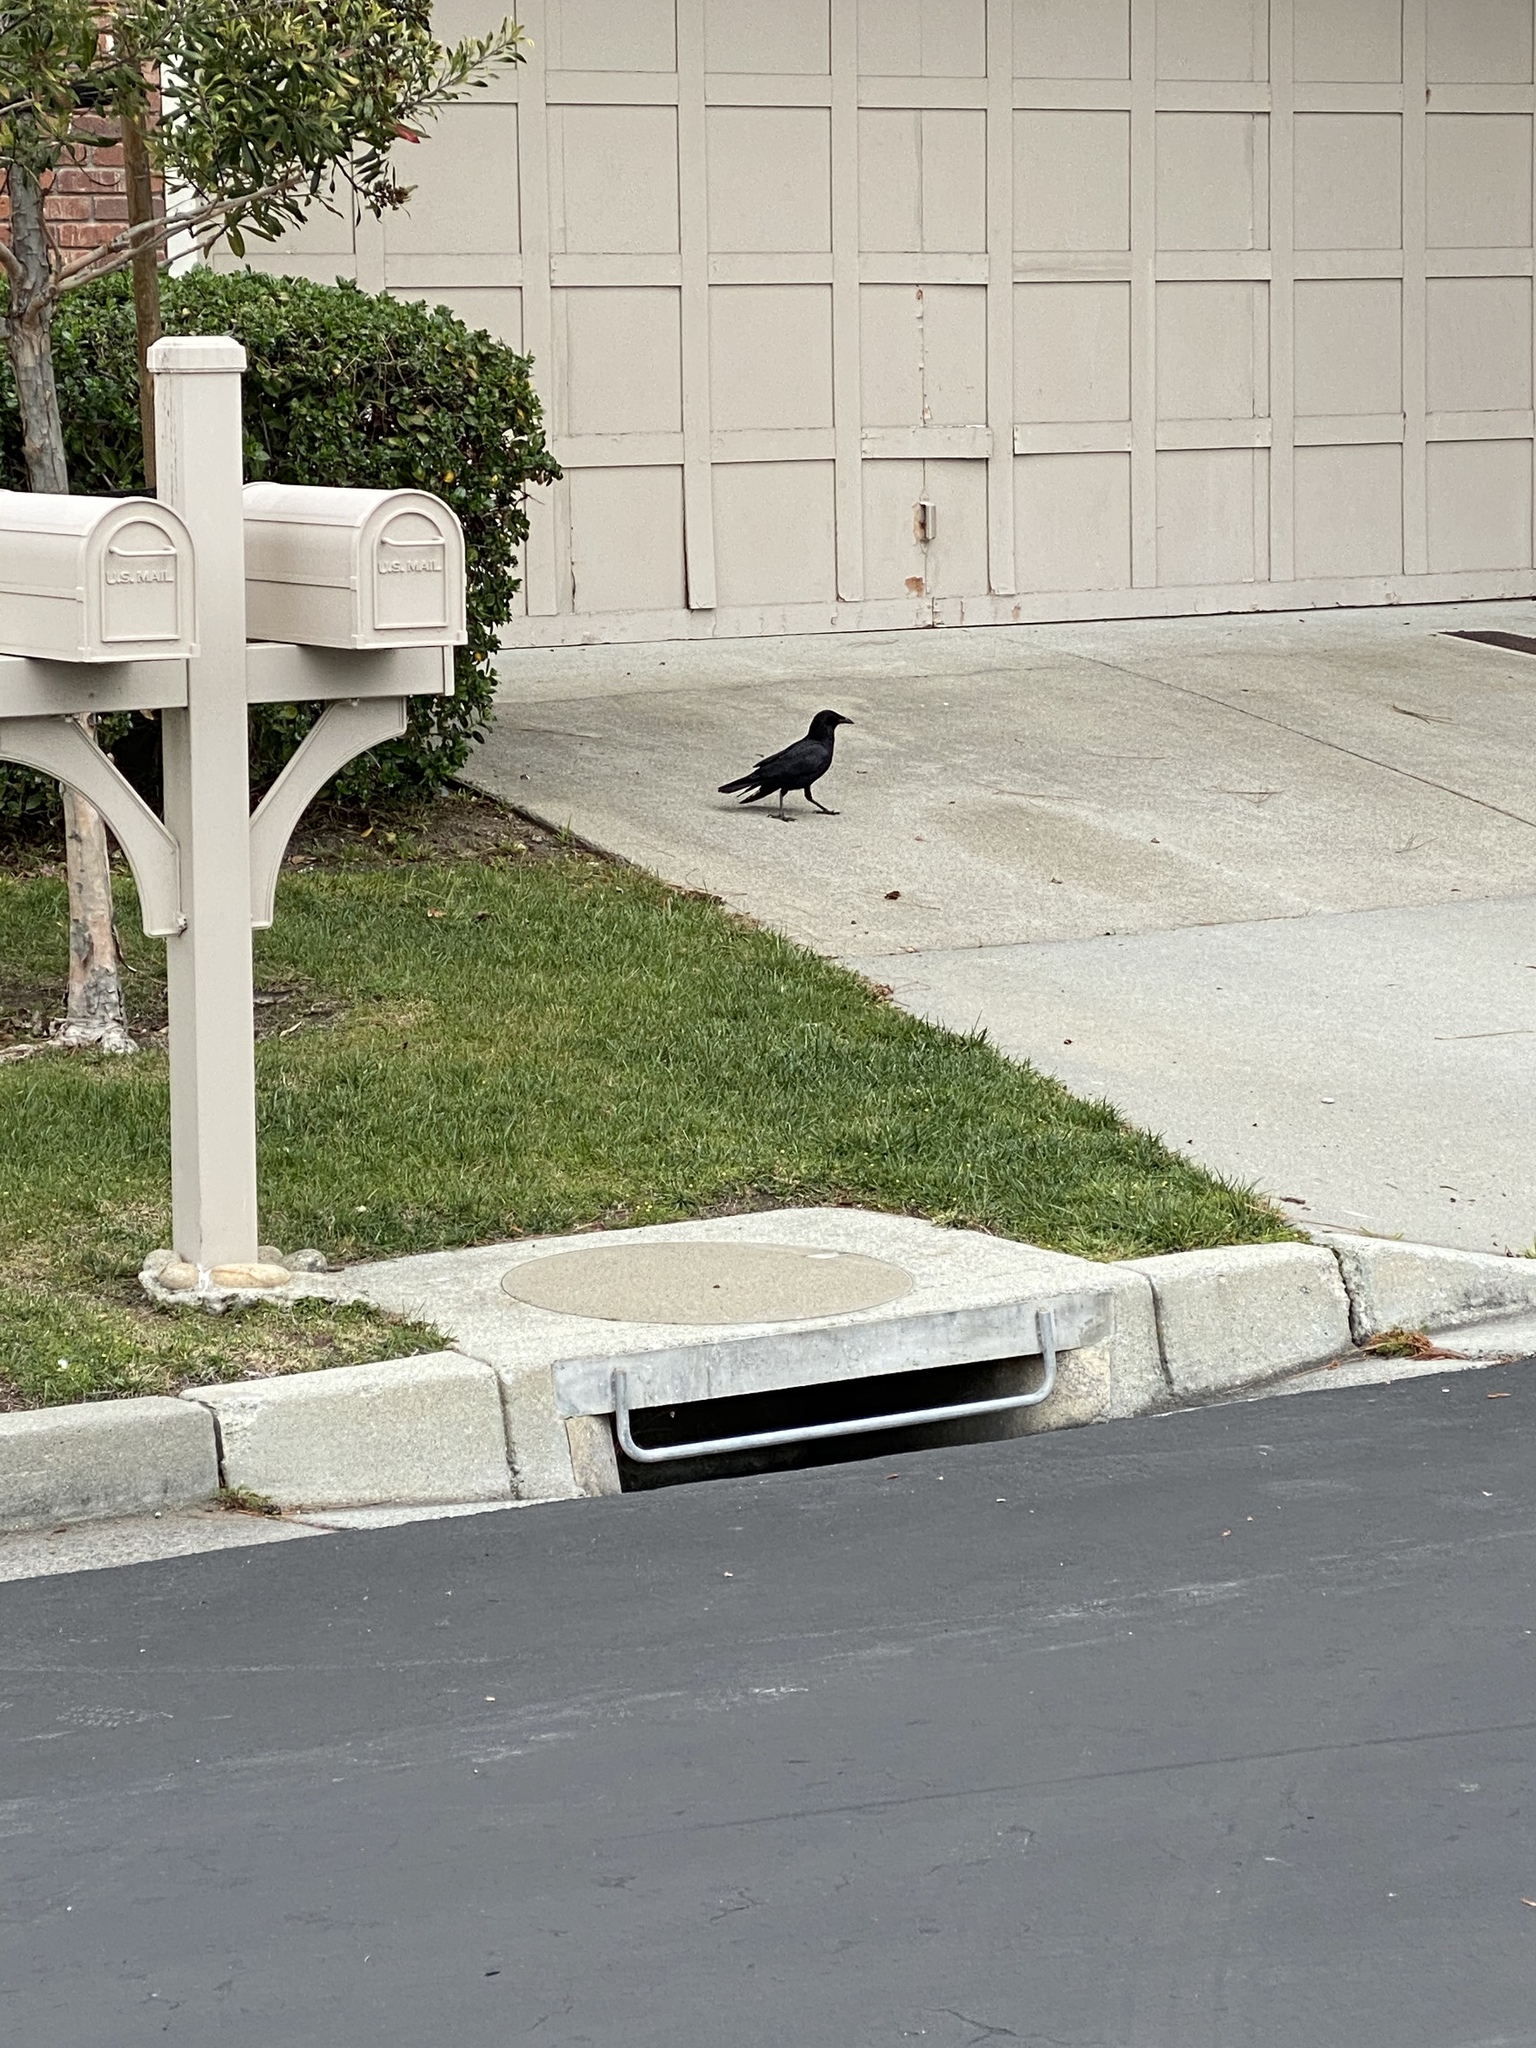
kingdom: Animalia
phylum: Chordata
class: Aves
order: Passeriformes
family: Corvidae
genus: Corvus
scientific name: Corvus brachyrhynchos
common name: American crow
